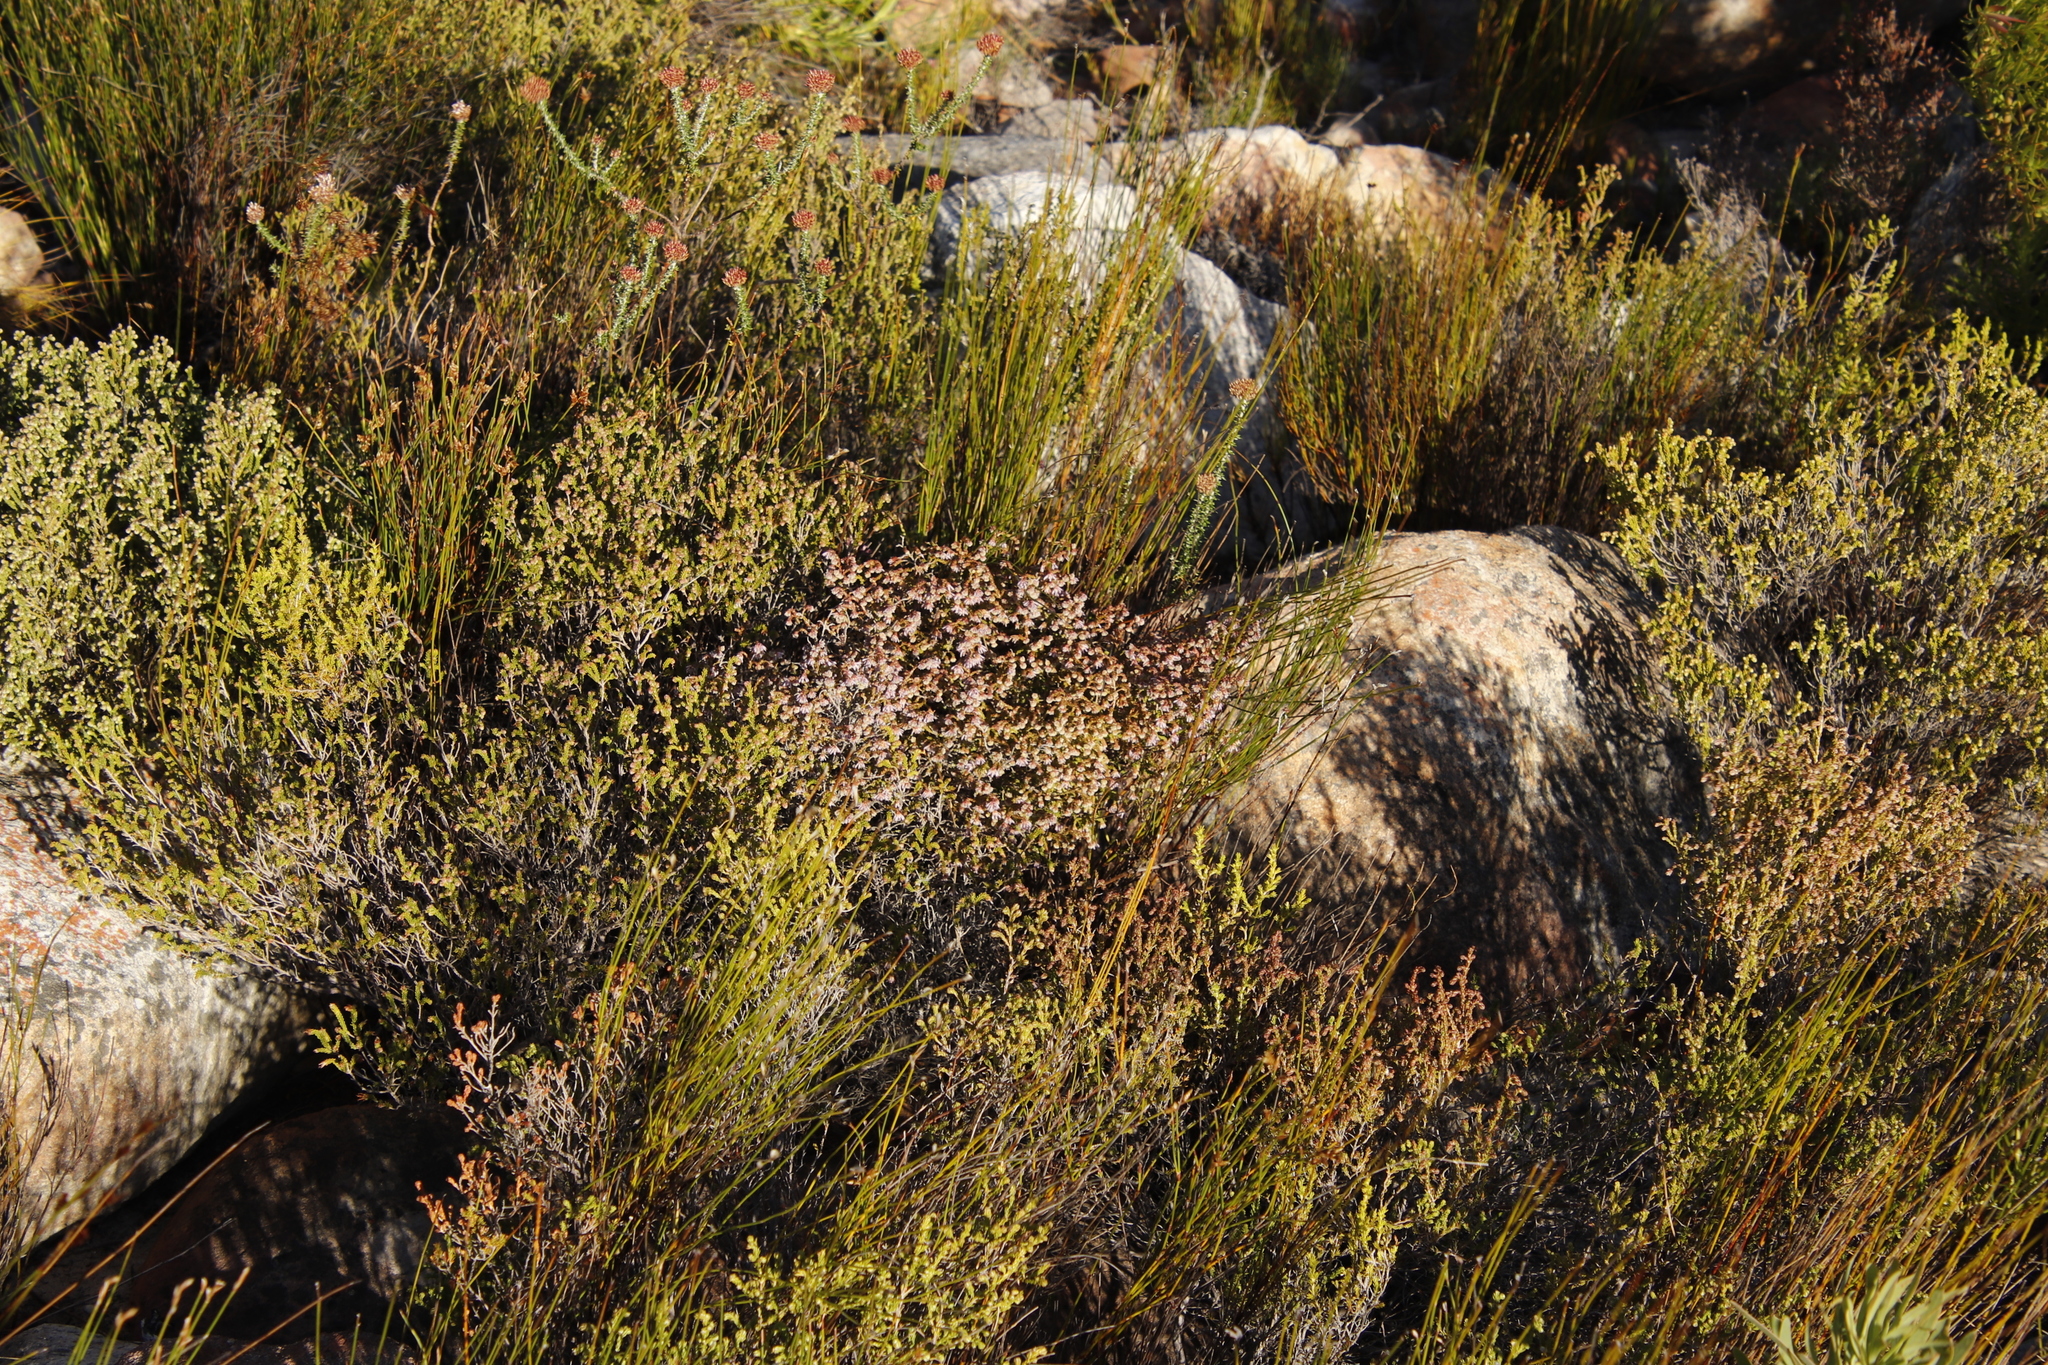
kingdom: Plantae
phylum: Tracheophyta
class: Magnoliopsida
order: Ericales
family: Ericaceae
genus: Erica
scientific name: Erica glabella
